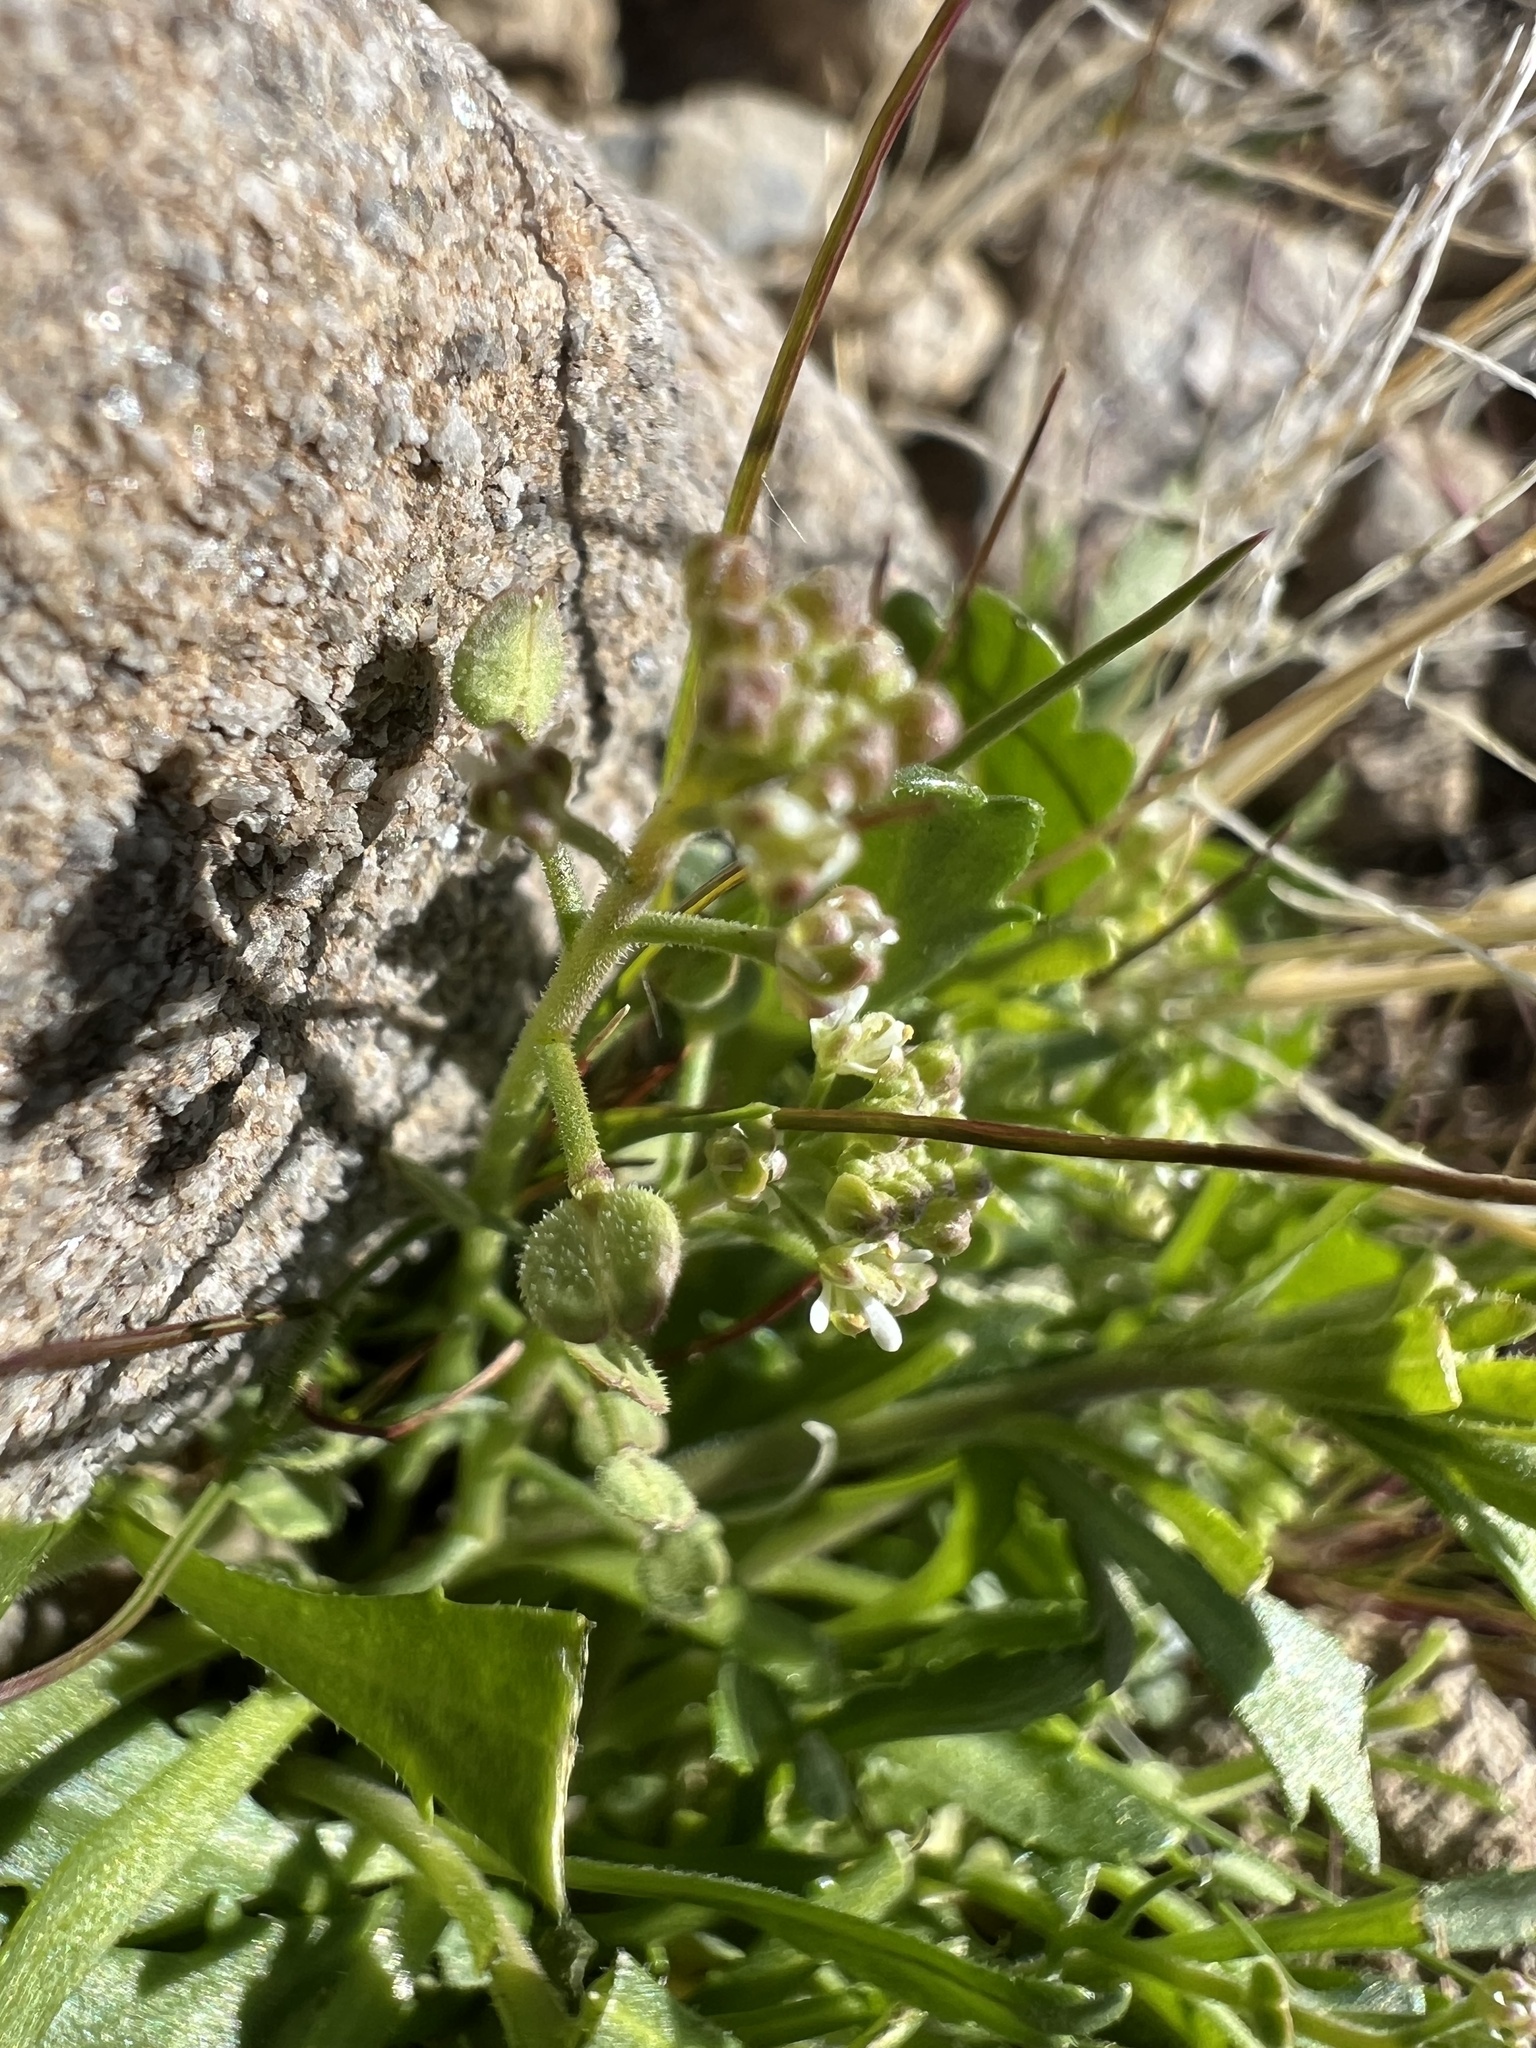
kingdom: Plantae
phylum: Tracheophyta
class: Magnoliopsida
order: Brassicales
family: Brassicaceae
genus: Lepidium
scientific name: Lepidium lasiocarpum
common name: Hairy-pod pepperwort
